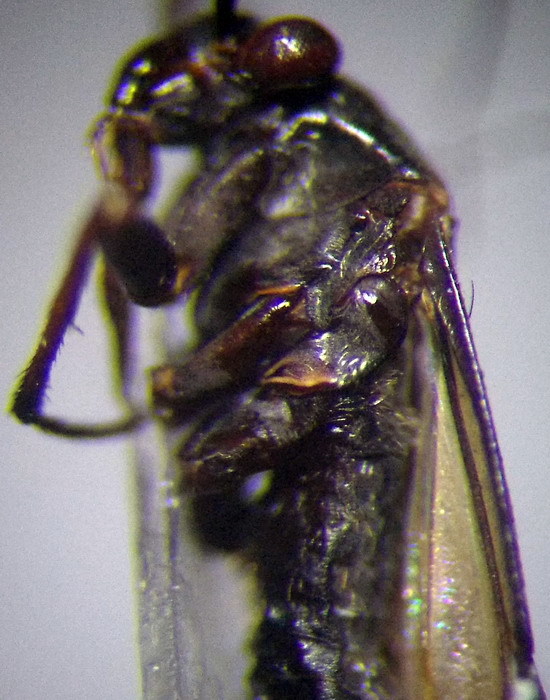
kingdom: Animalia
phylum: Arthropoda
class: Insecta
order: Hemiptera
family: Miridae
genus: Orthocephalus
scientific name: Orthocephalus bivittatus
